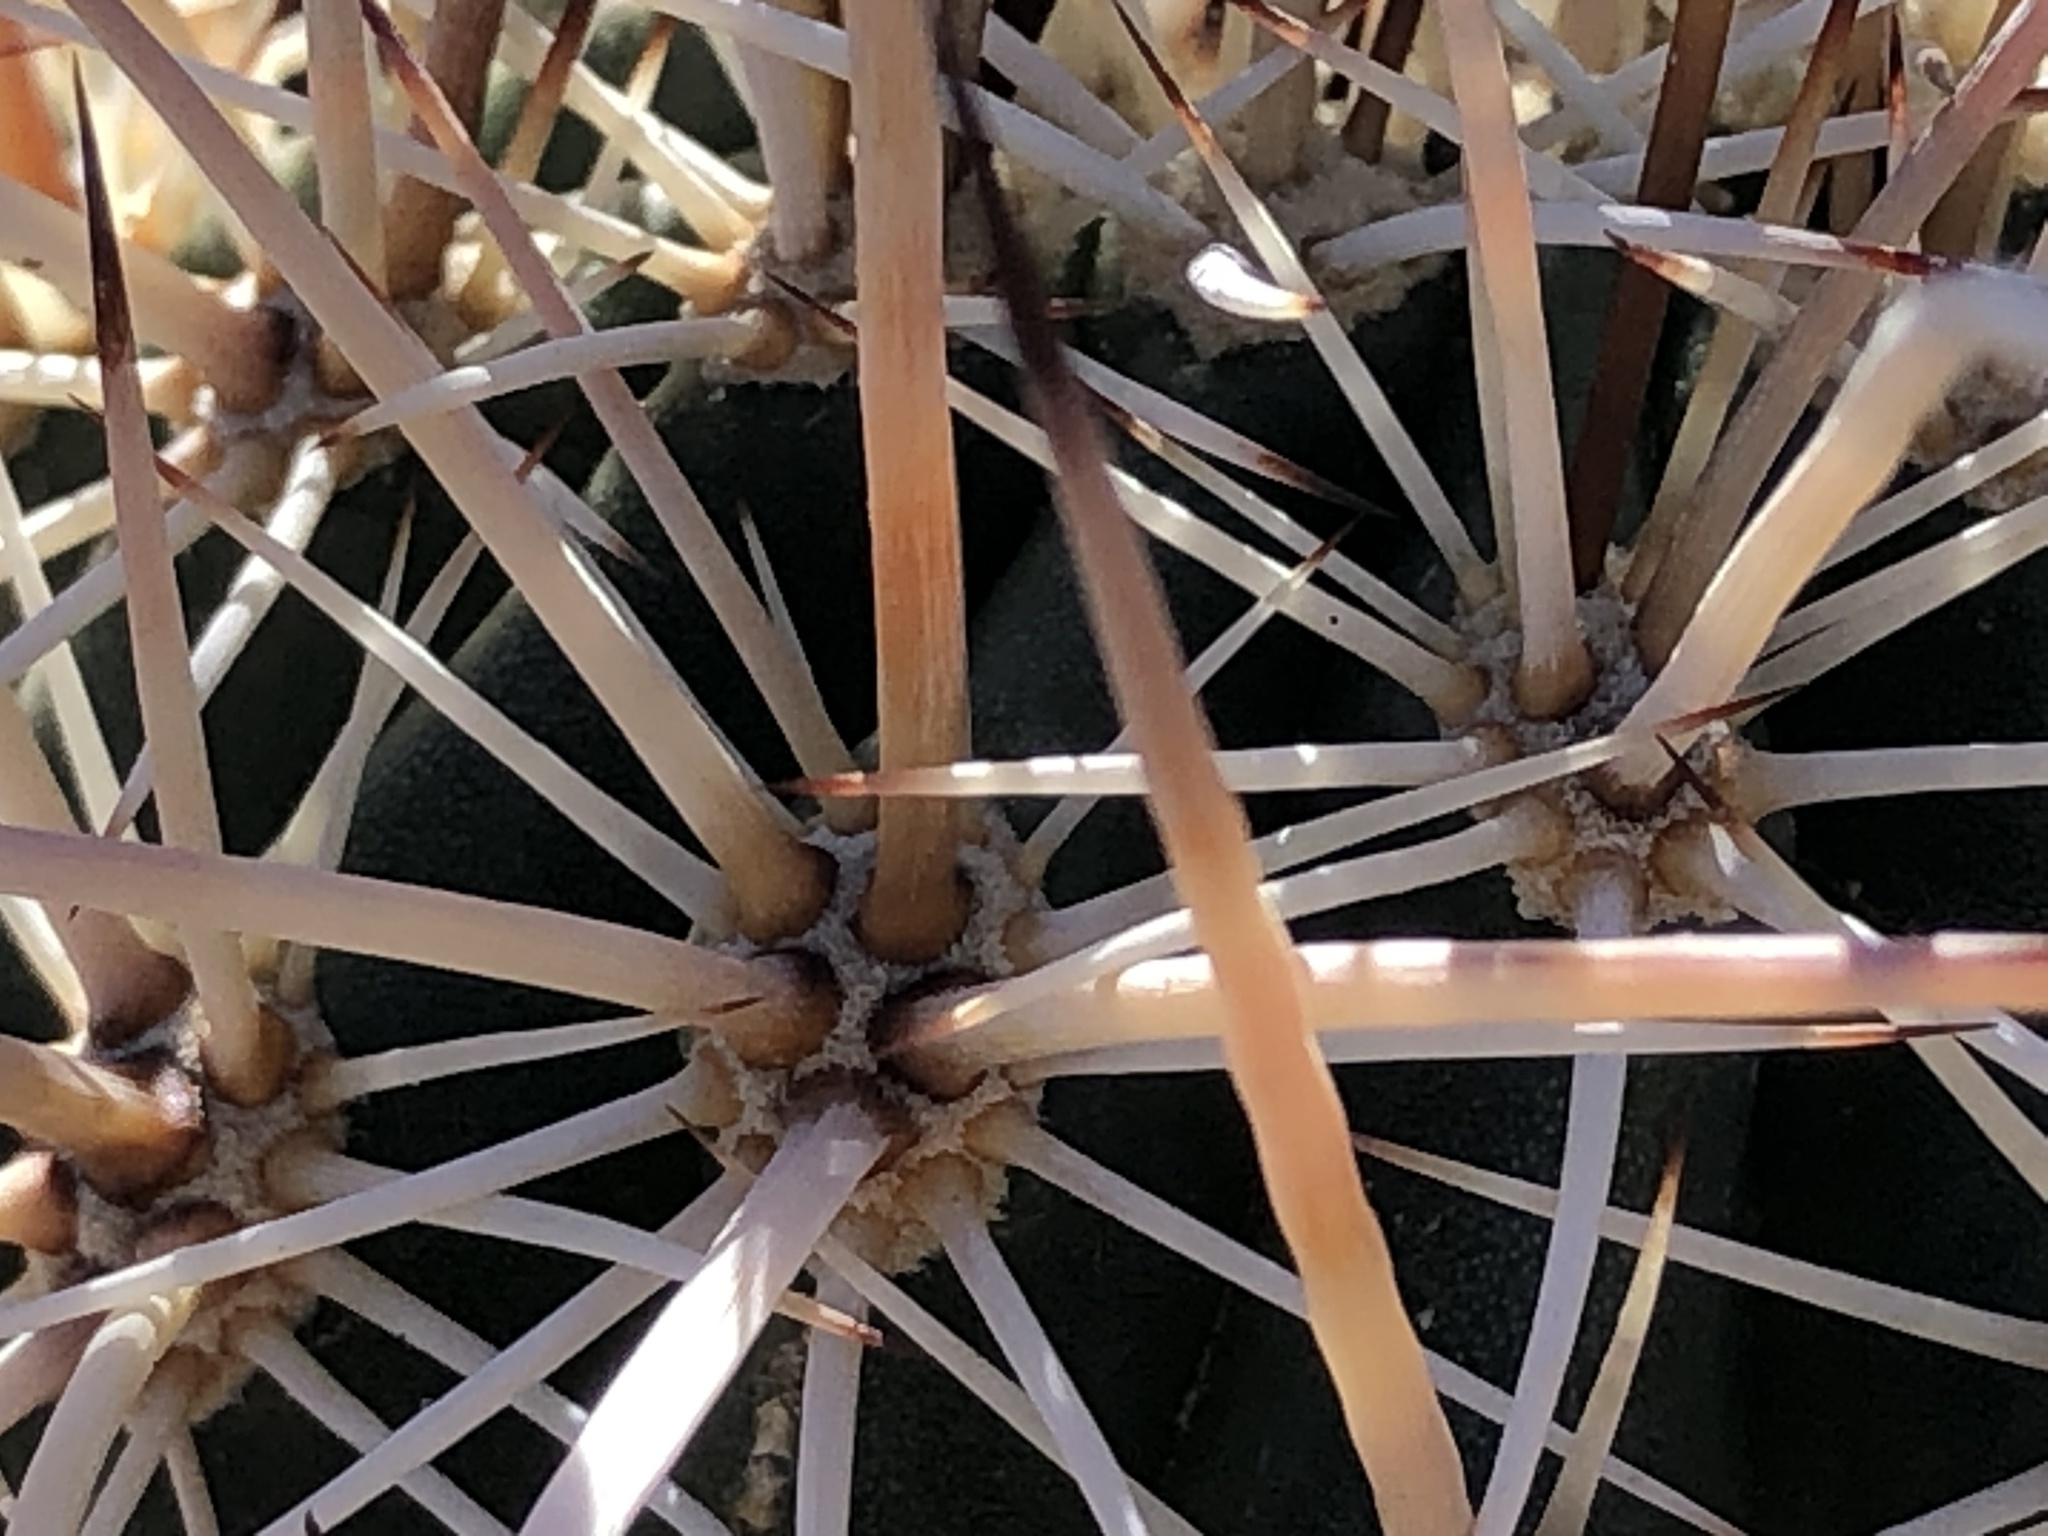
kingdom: Plantae
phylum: Tracheophyta
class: Magnoliopsida
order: Caryophyllales
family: Cactaceae
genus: Echinocereus
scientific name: Echinocereus engelmannii
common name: Engelmann's hedgehog cactus
